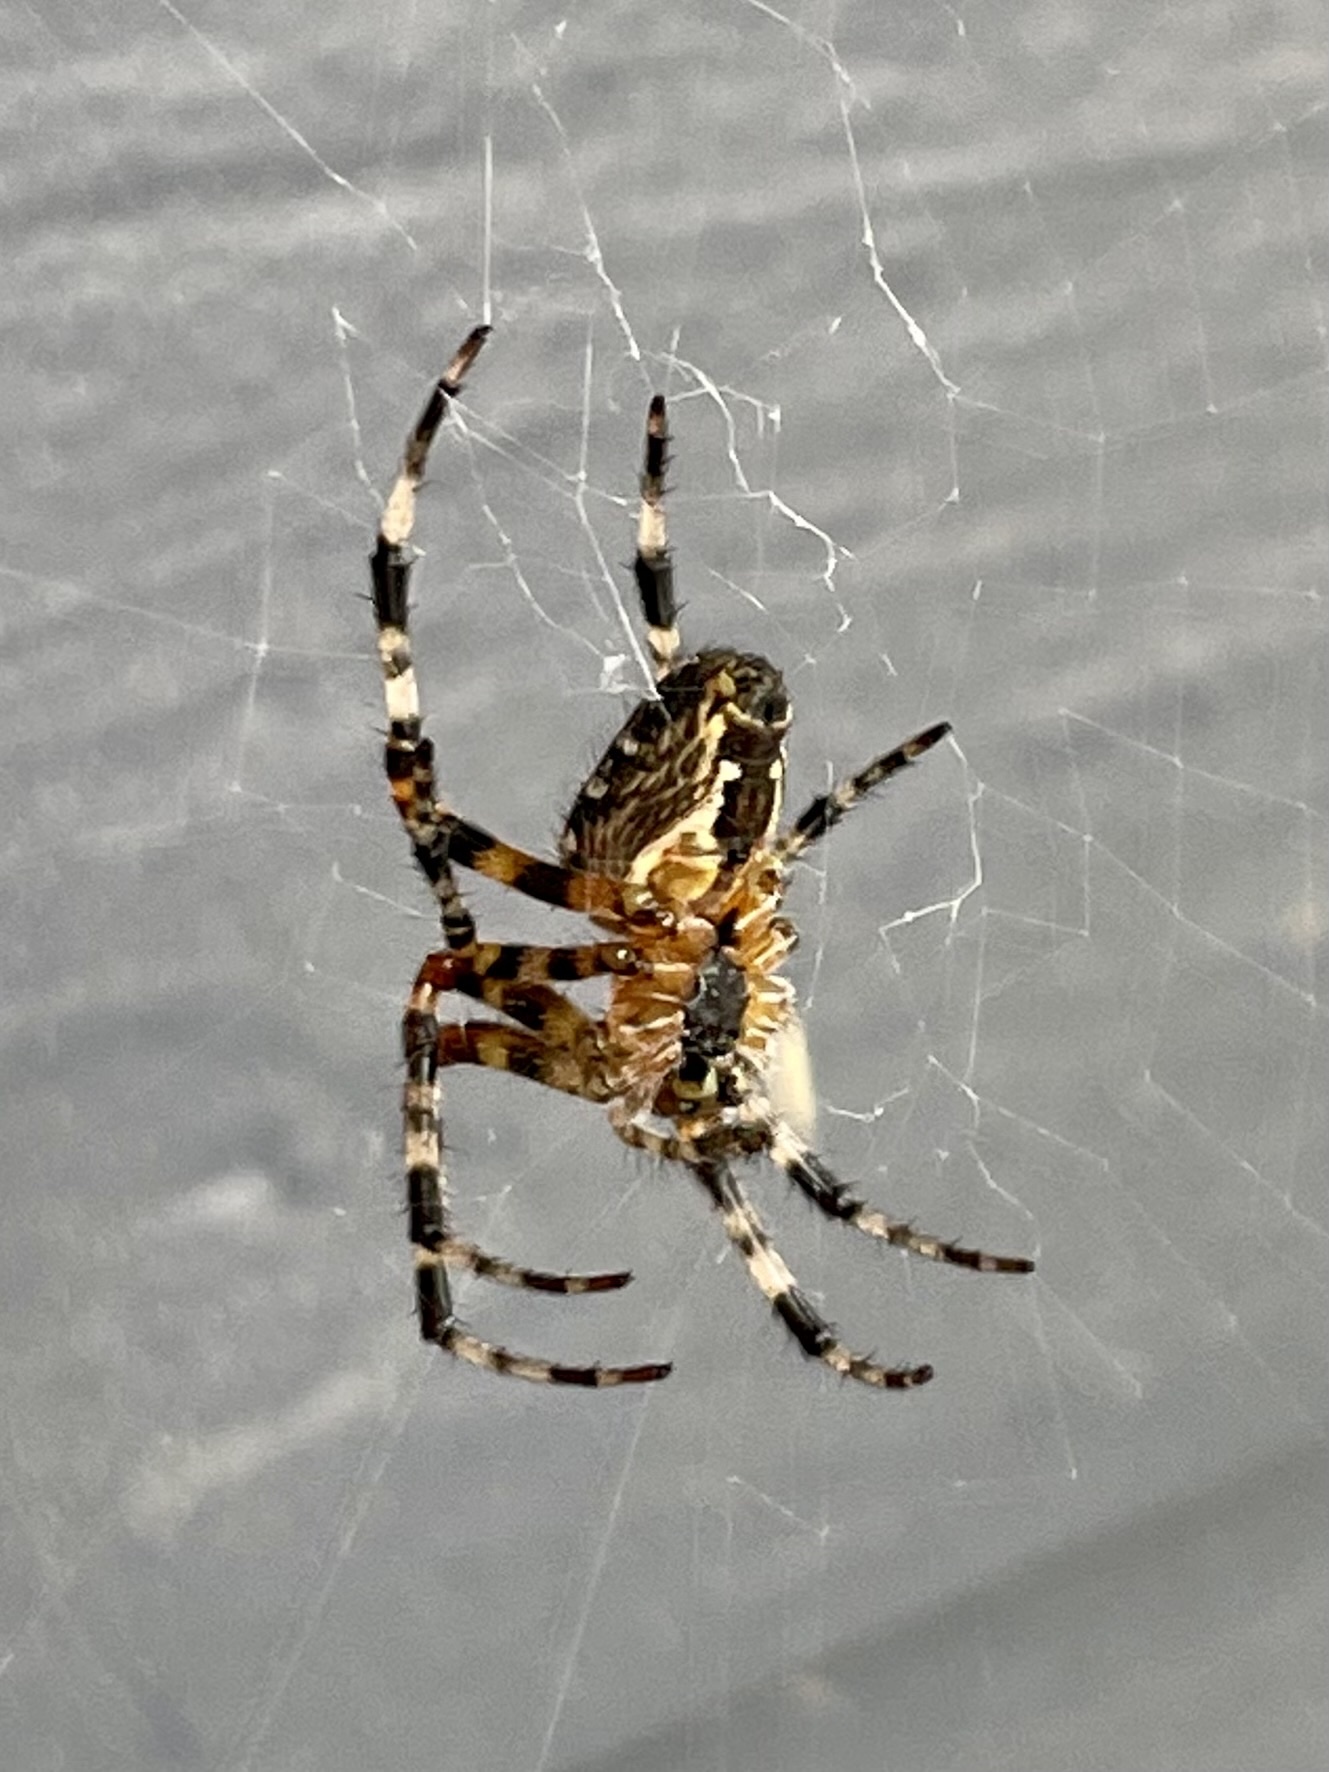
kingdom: Animalia
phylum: Arthropoda
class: Arachnida
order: Araneae
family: Araneidae
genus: Araneus
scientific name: Araneus diadematus
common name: Cross orbweaver
